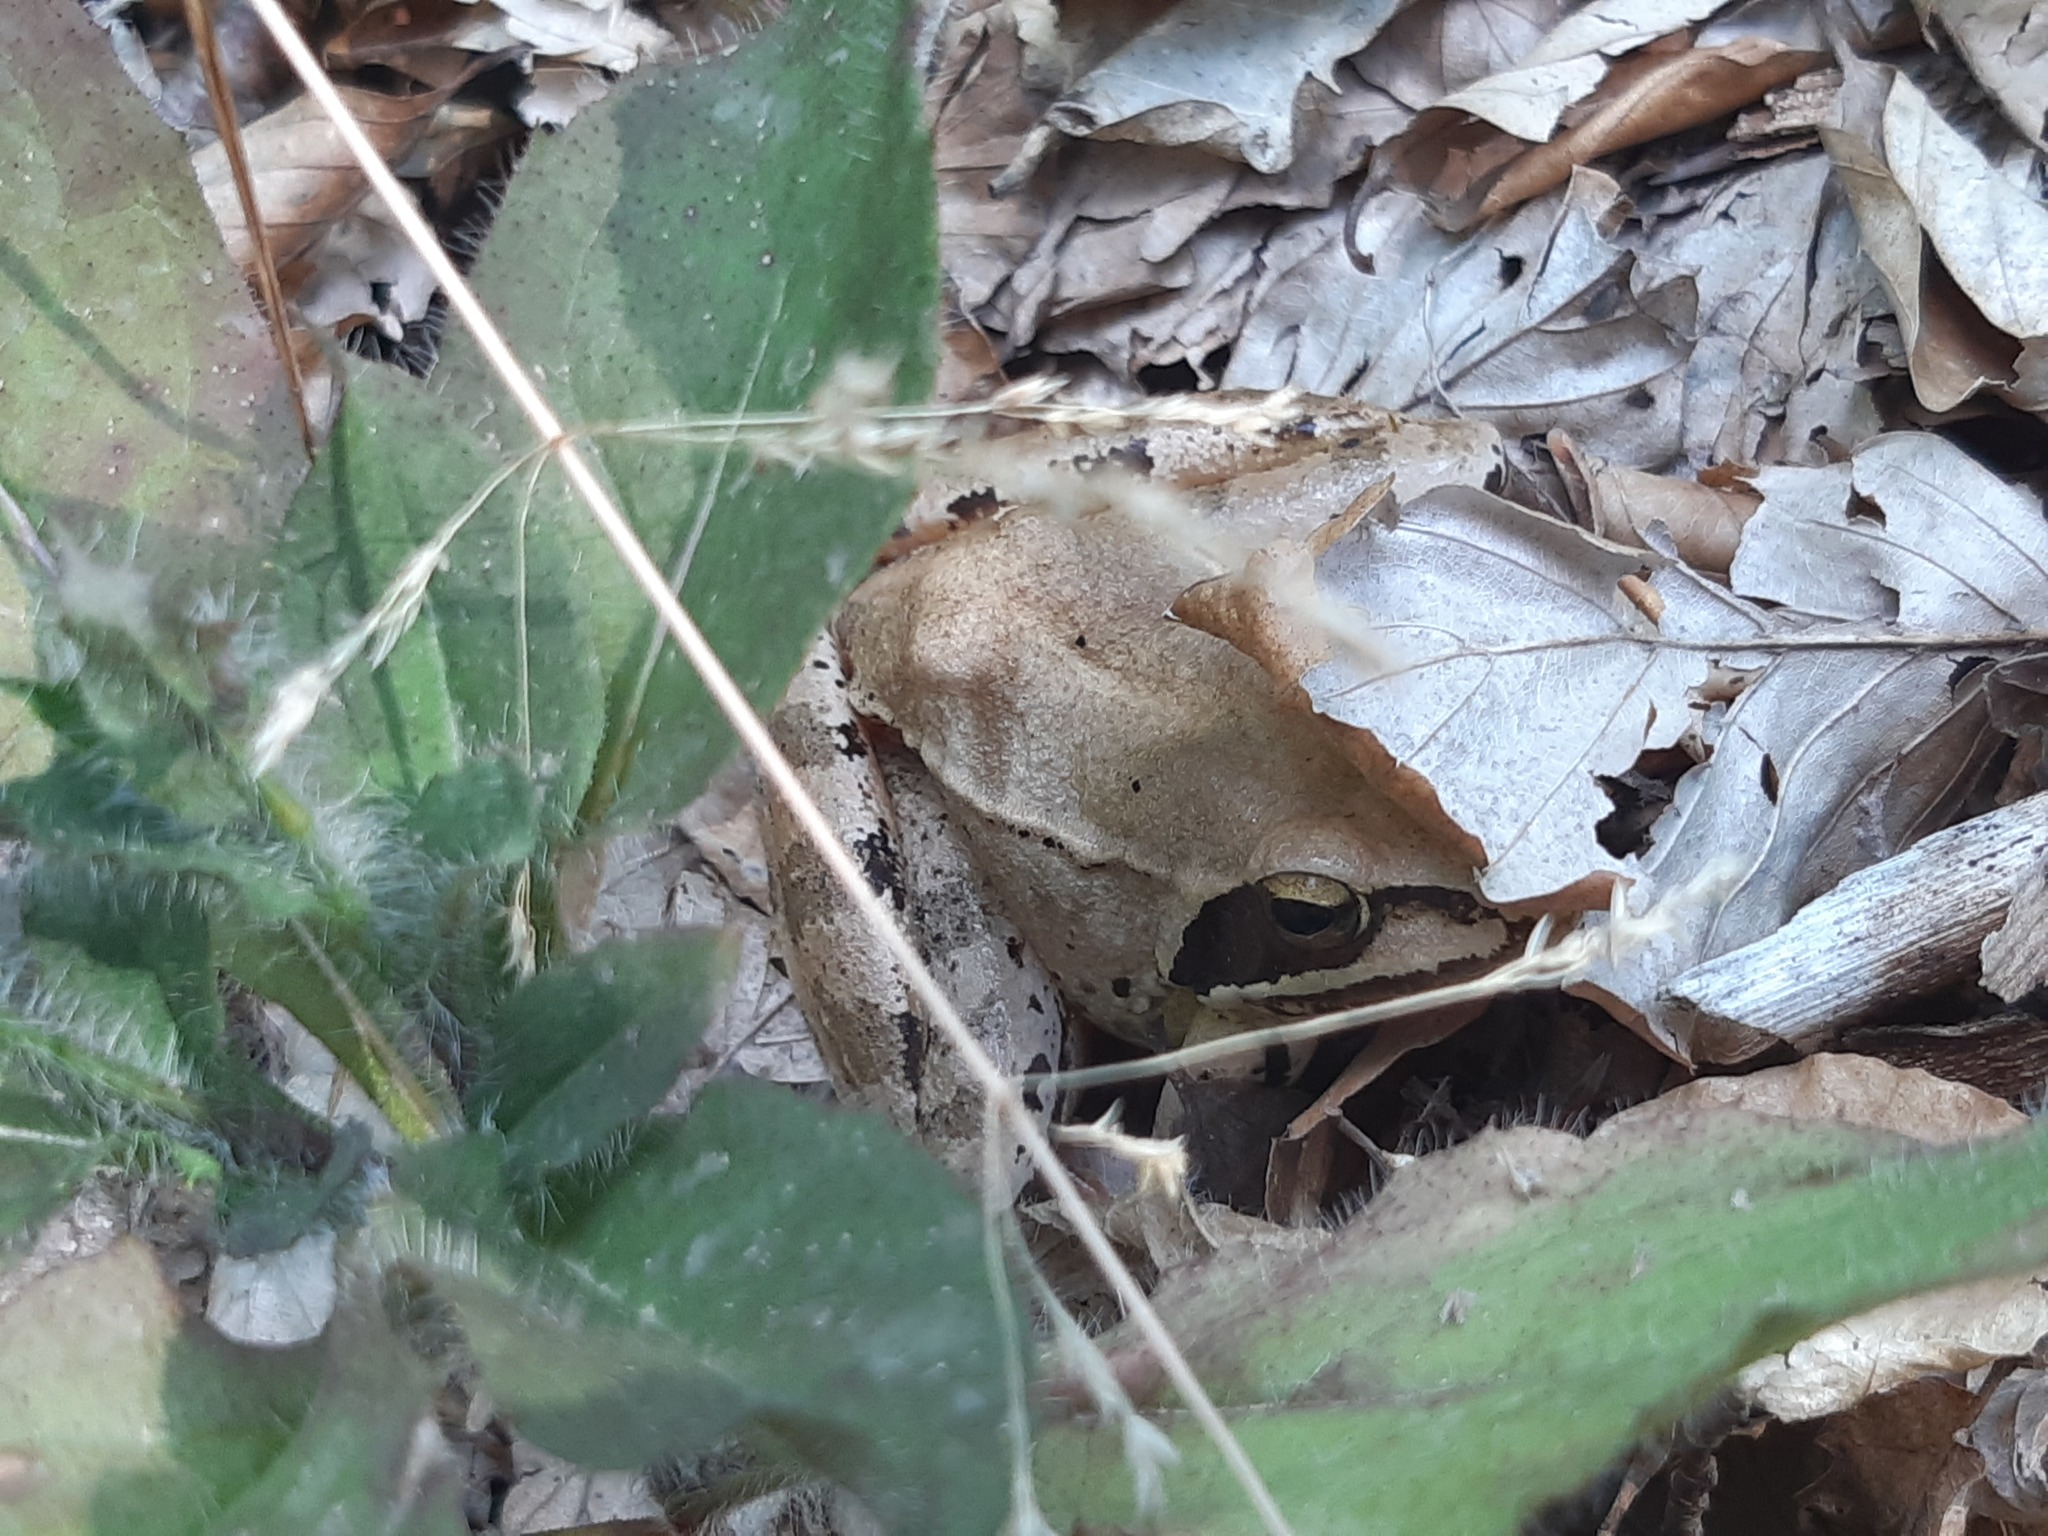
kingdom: Animalia
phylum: Chordata
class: Amphibia
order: Anura
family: Ranidae
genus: Rana
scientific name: Rana dalmatina
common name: Agile frog
